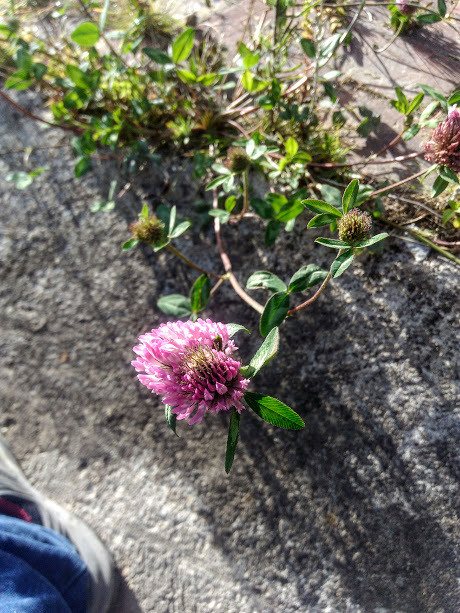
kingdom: Plantae
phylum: Tracheophyta
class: Magnoliopsida
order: Fabales
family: Fabaceae
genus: Trifolium
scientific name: Trifolium pratense
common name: Red clover
